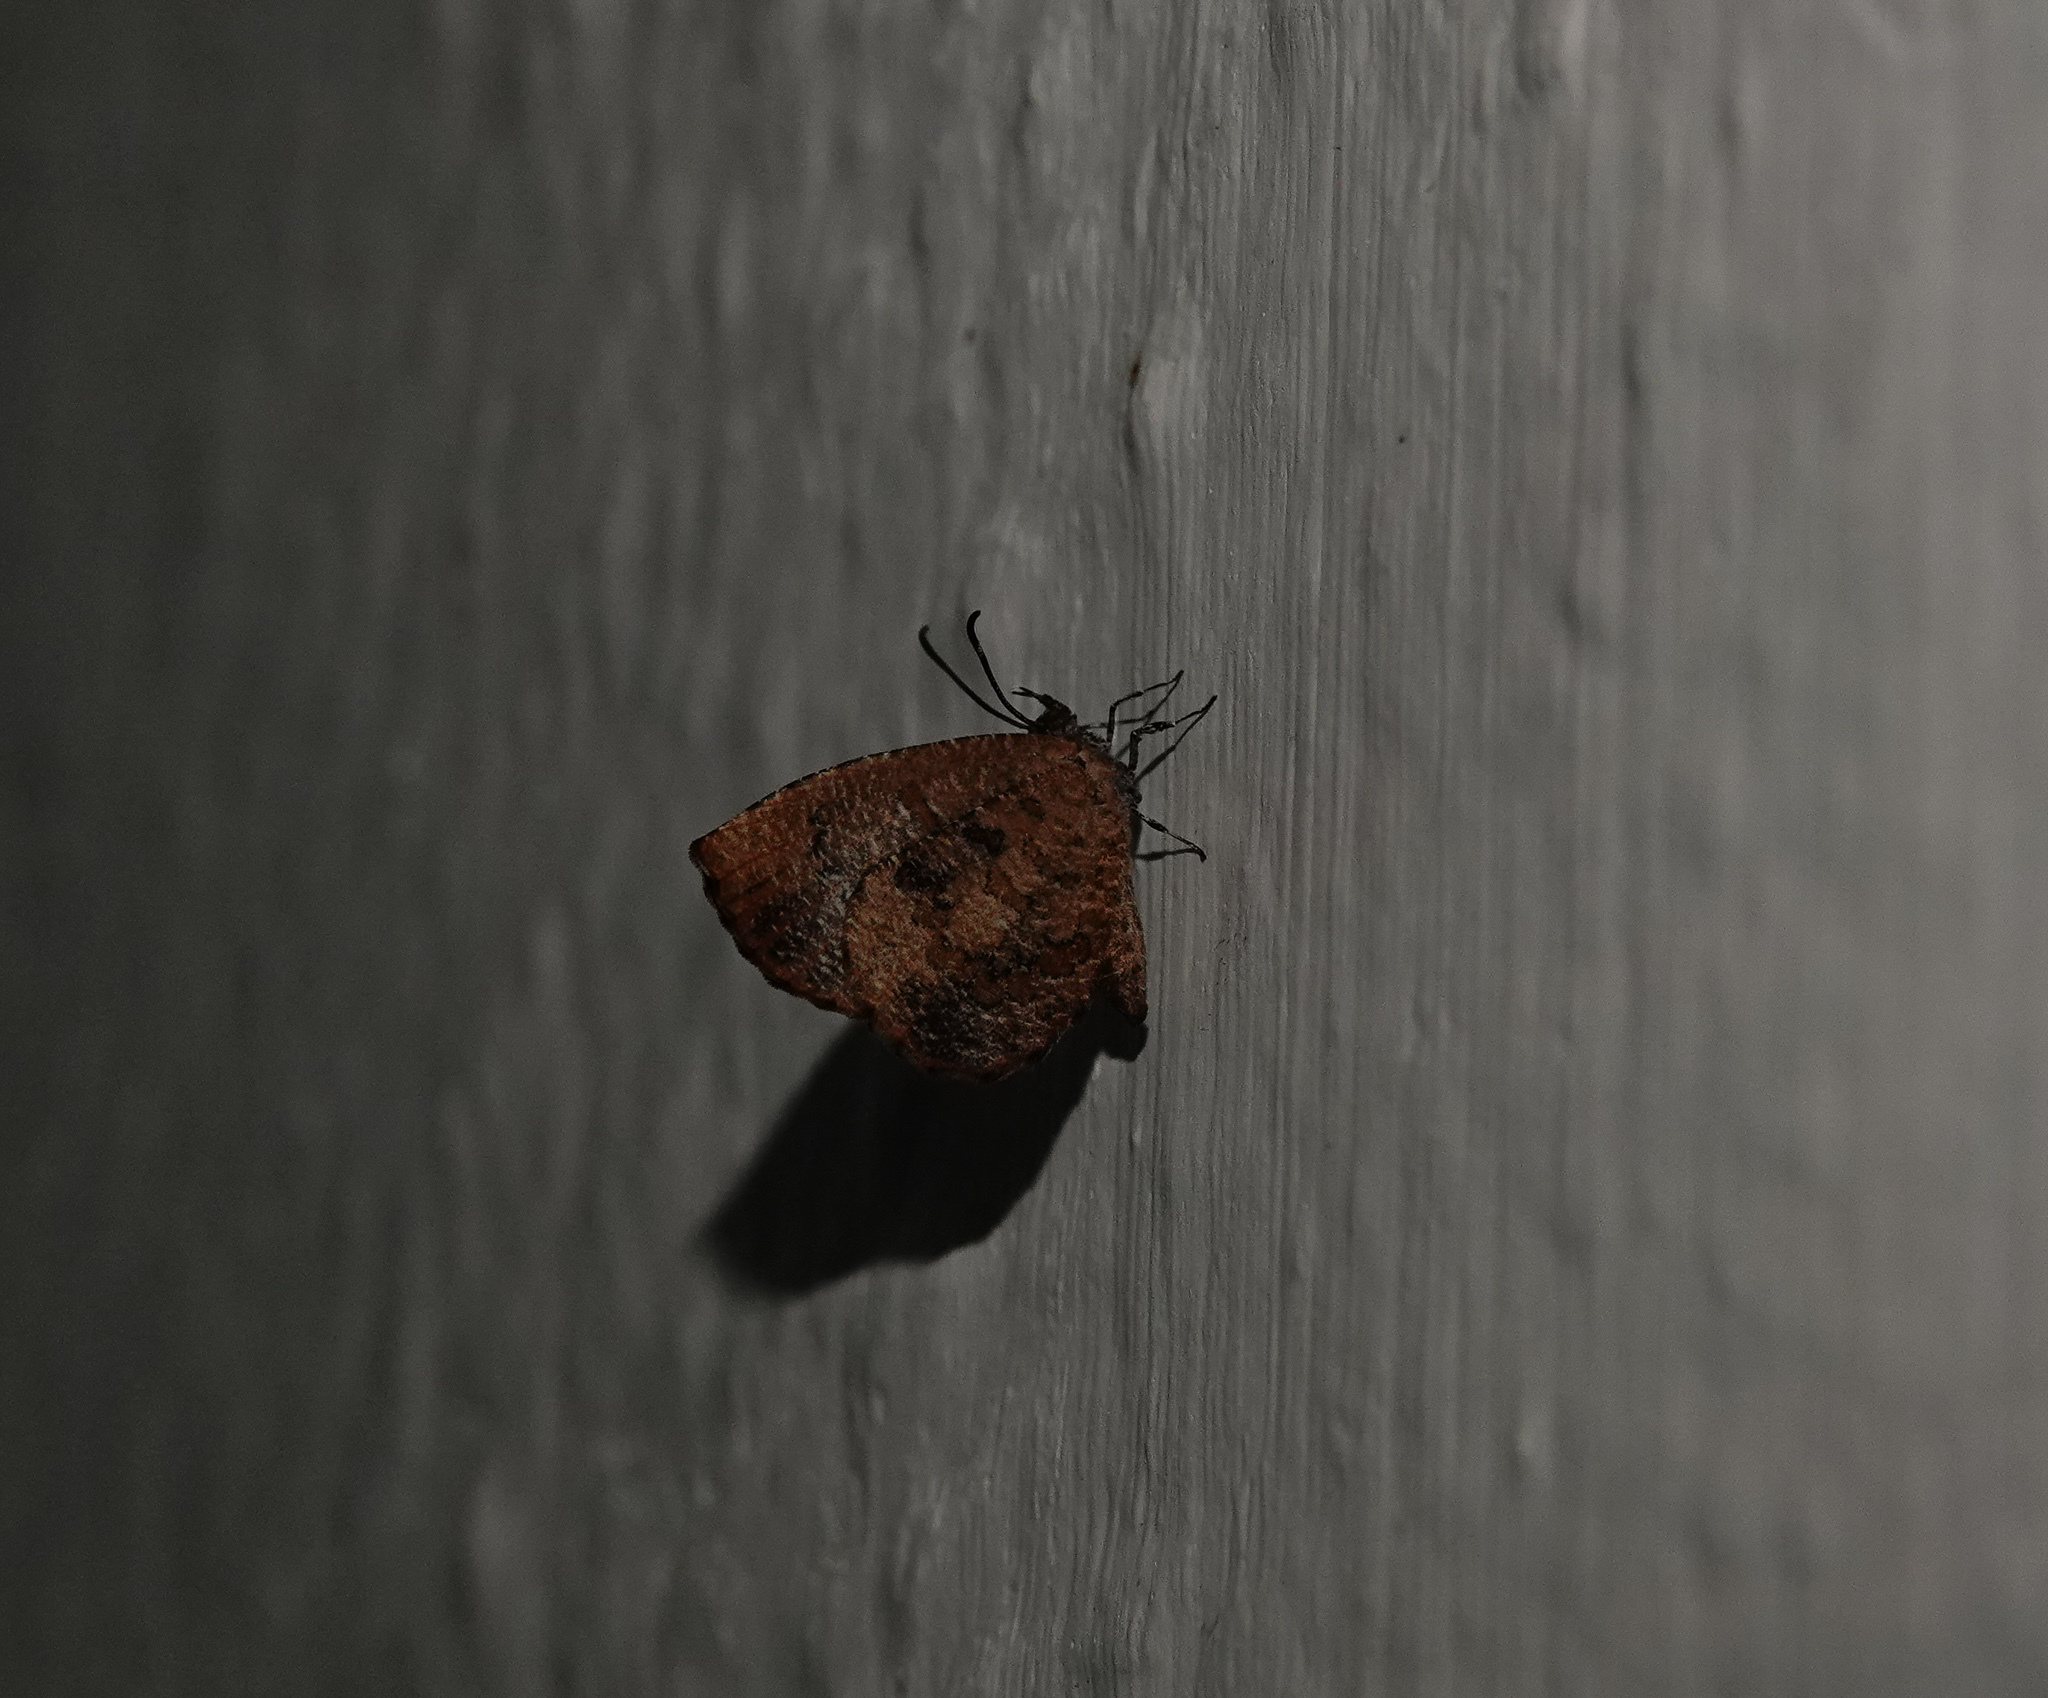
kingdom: Animalia
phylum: Arthropoda
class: Insecta
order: Lepidoptera
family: Lycaenidae
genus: Logania
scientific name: Logania distanti
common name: Dark mottle
